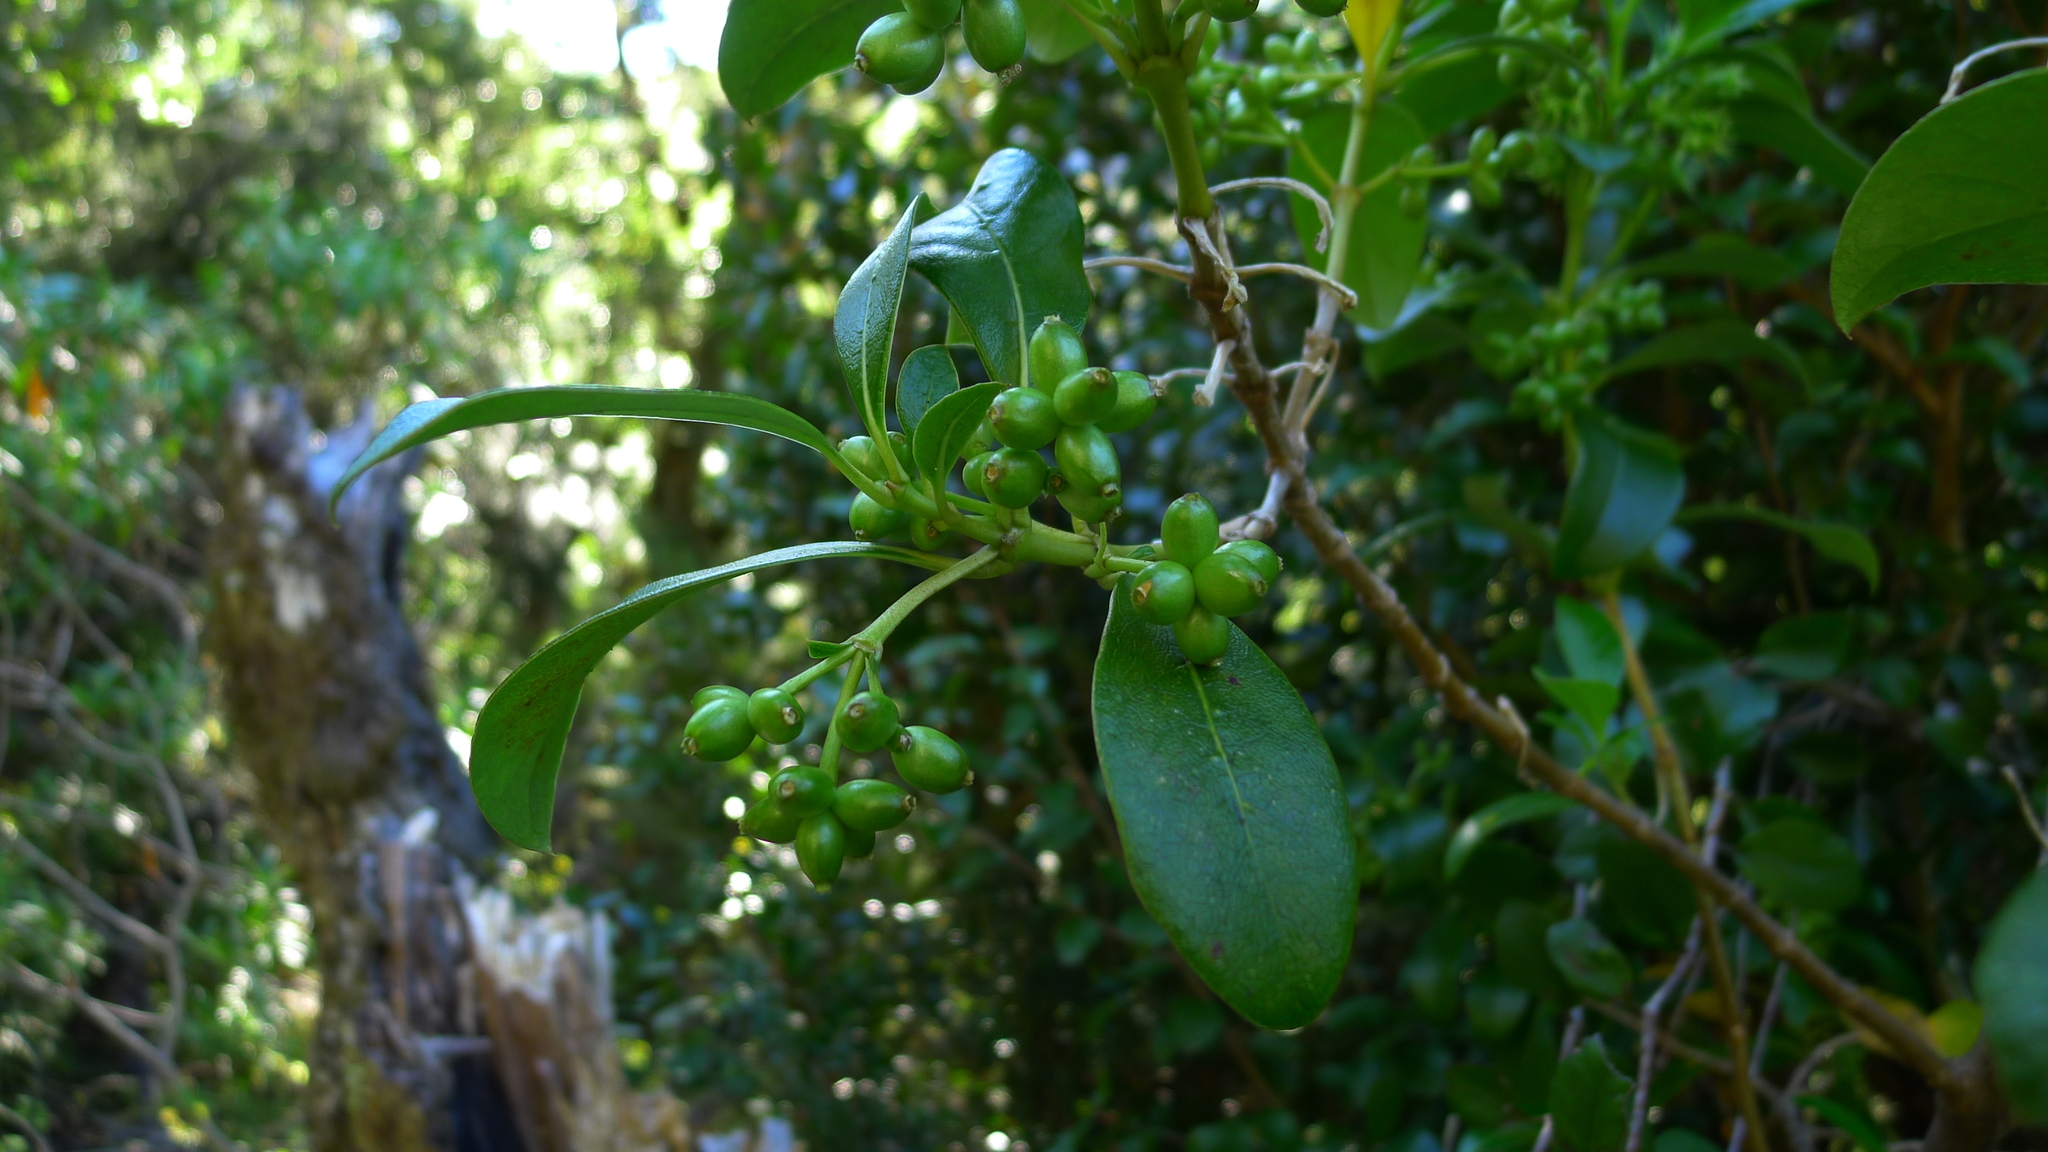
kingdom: Plantae
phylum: Tracheophyta
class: Magnoliopsida
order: Gentianales
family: Rubiaceae
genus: Coprosma
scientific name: Coprosma lucida
